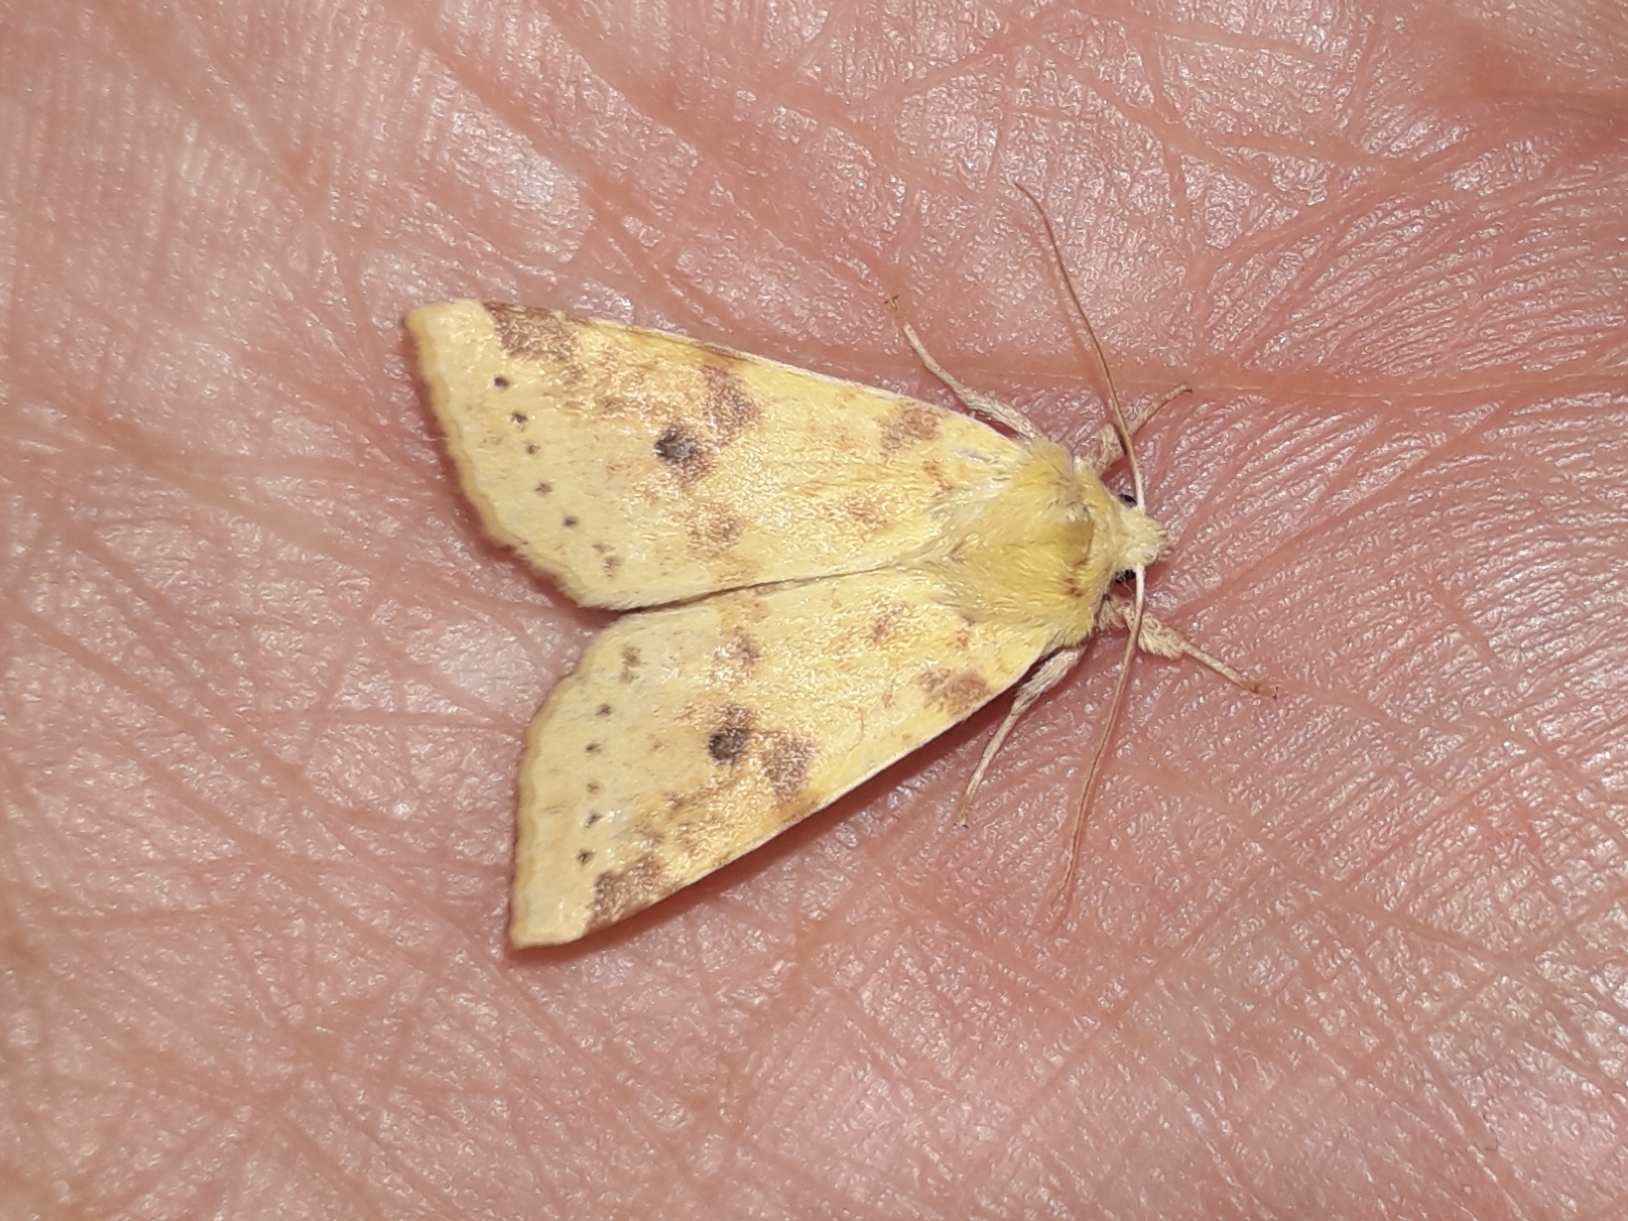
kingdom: Animalia
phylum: Arthropoda
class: Insecta
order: Lepidoptera
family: Noctuidae
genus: Xanthia
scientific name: Xanthia icteritia
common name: The sallow
